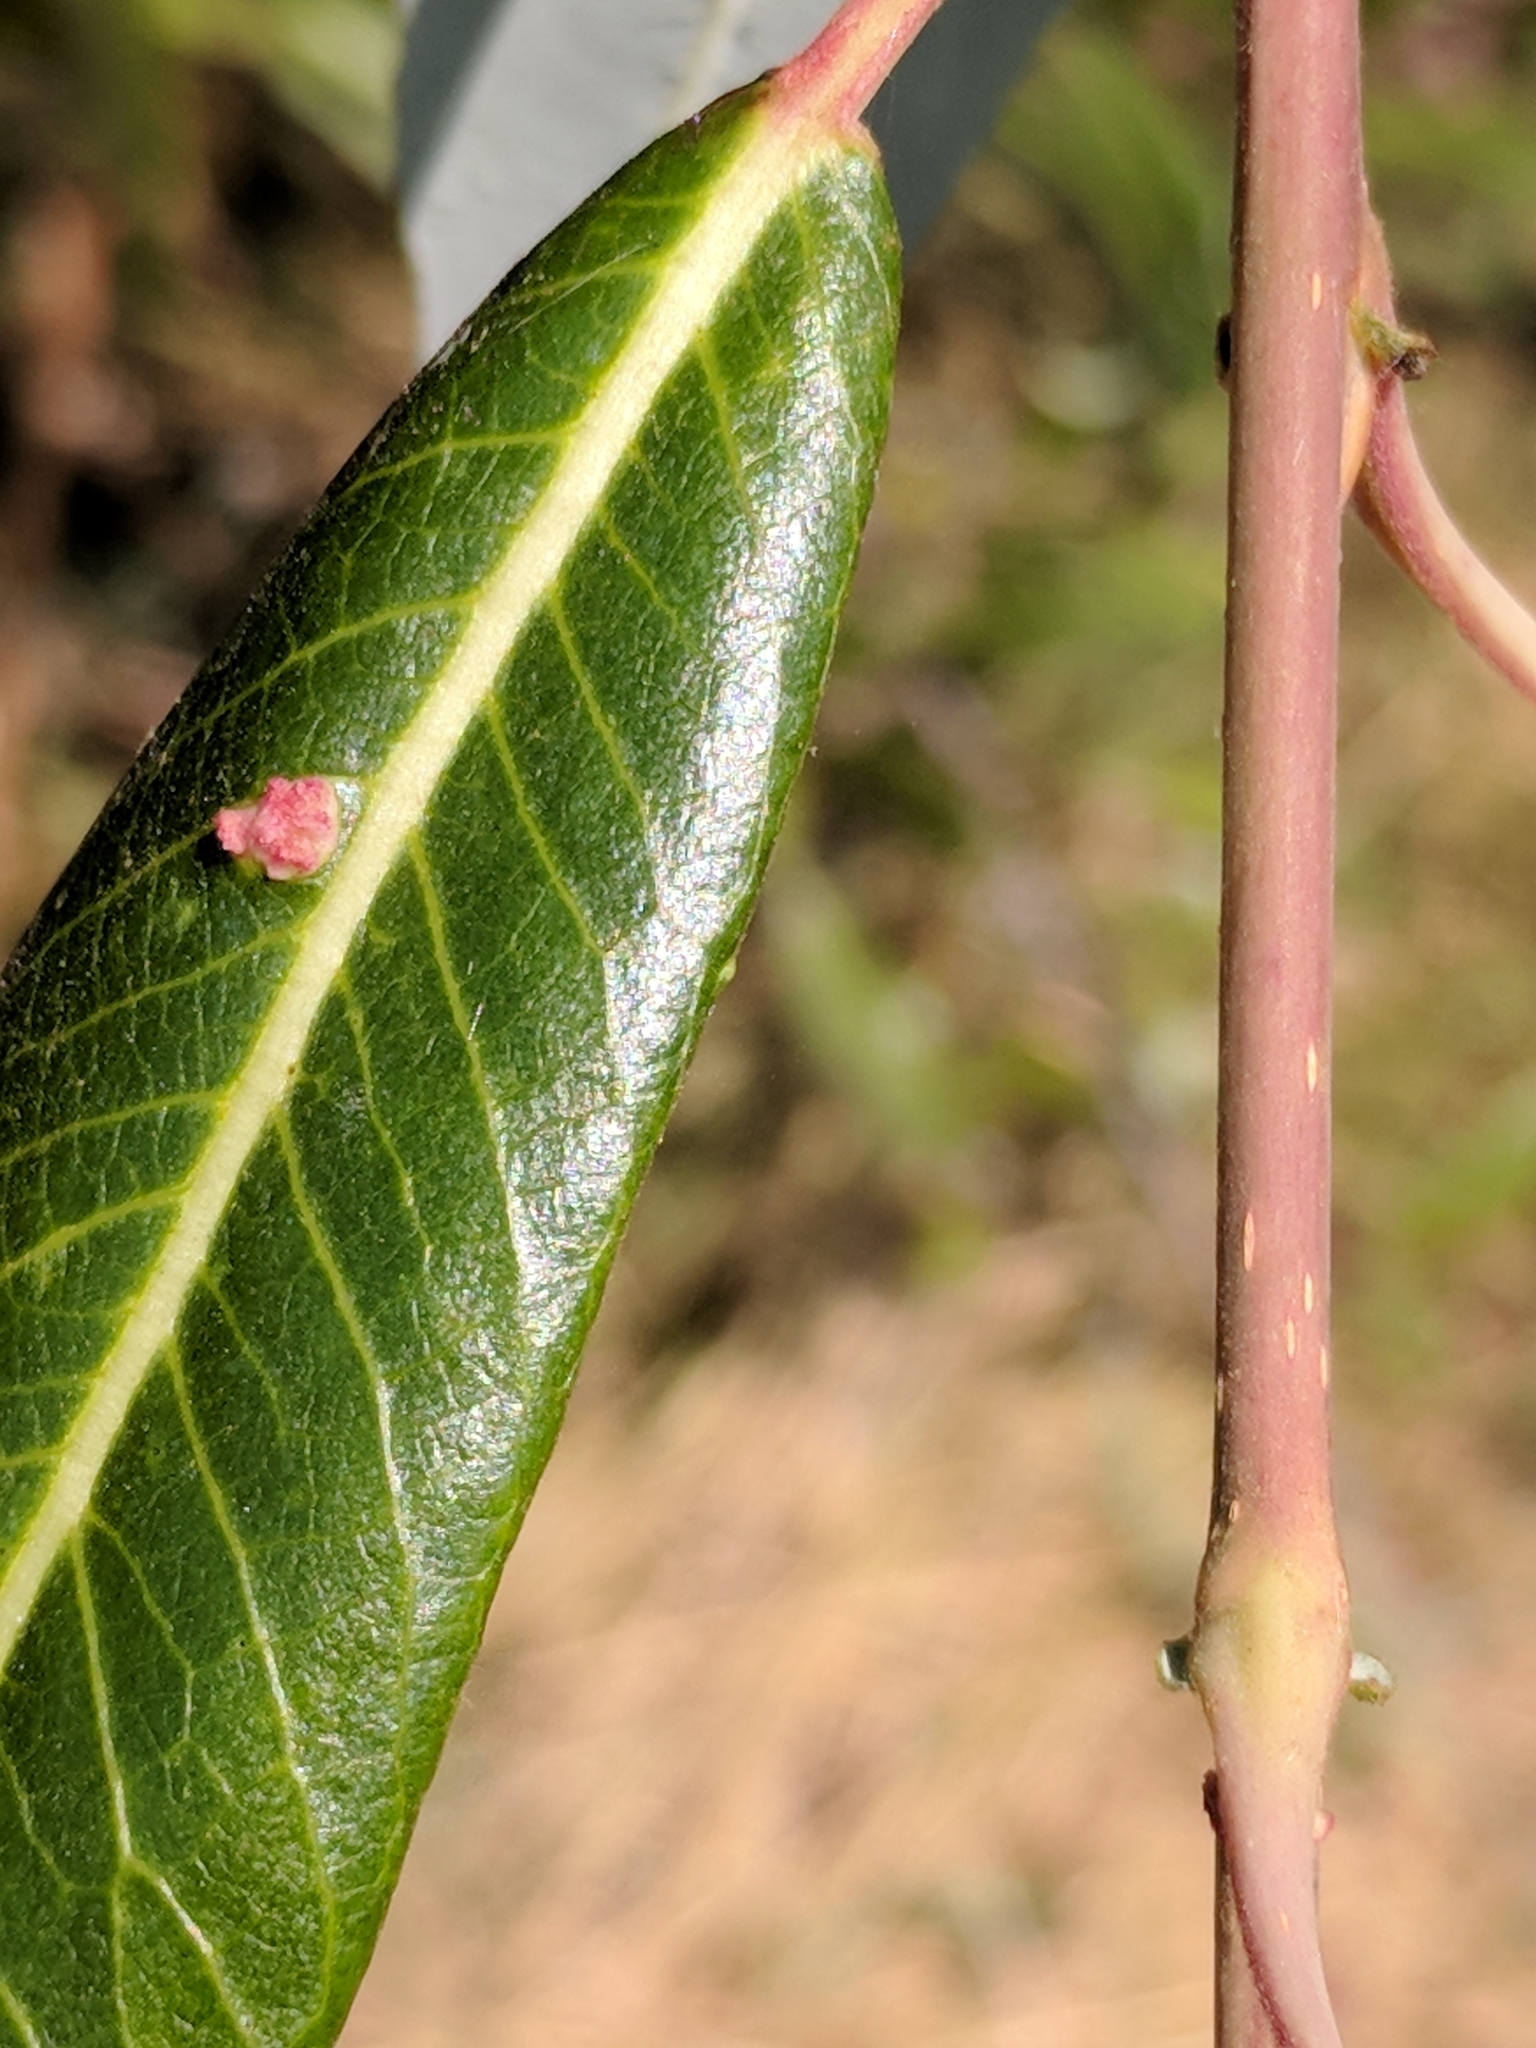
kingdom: Animalia
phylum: Arthropoda
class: Arachnida
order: Trombidiformes
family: Eriophyidae
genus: Aculus
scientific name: Aculus tetanothrix
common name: Willow bead gall mite
